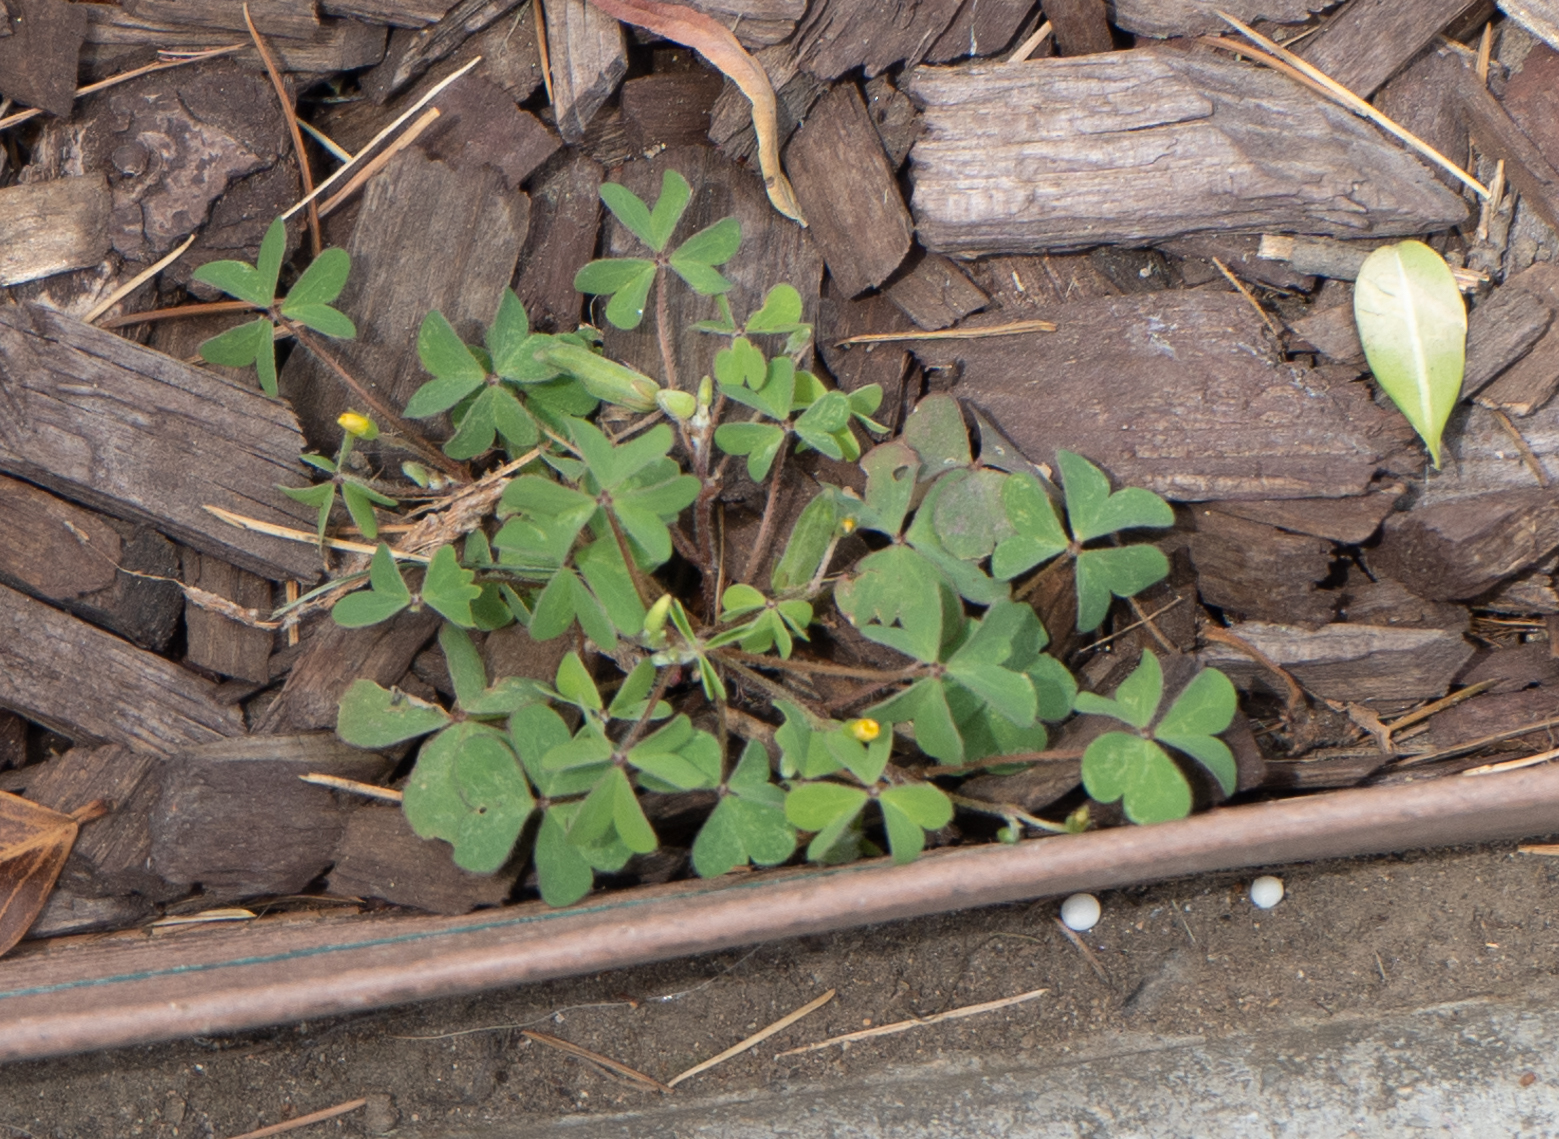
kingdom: Plantae
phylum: Tracheophyta
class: Magnoliopsida
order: Oxalidales
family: Oxalidaceae
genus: Oxalis
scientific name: Oxalis corniculata
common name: Procumbent yellow-sorrel
